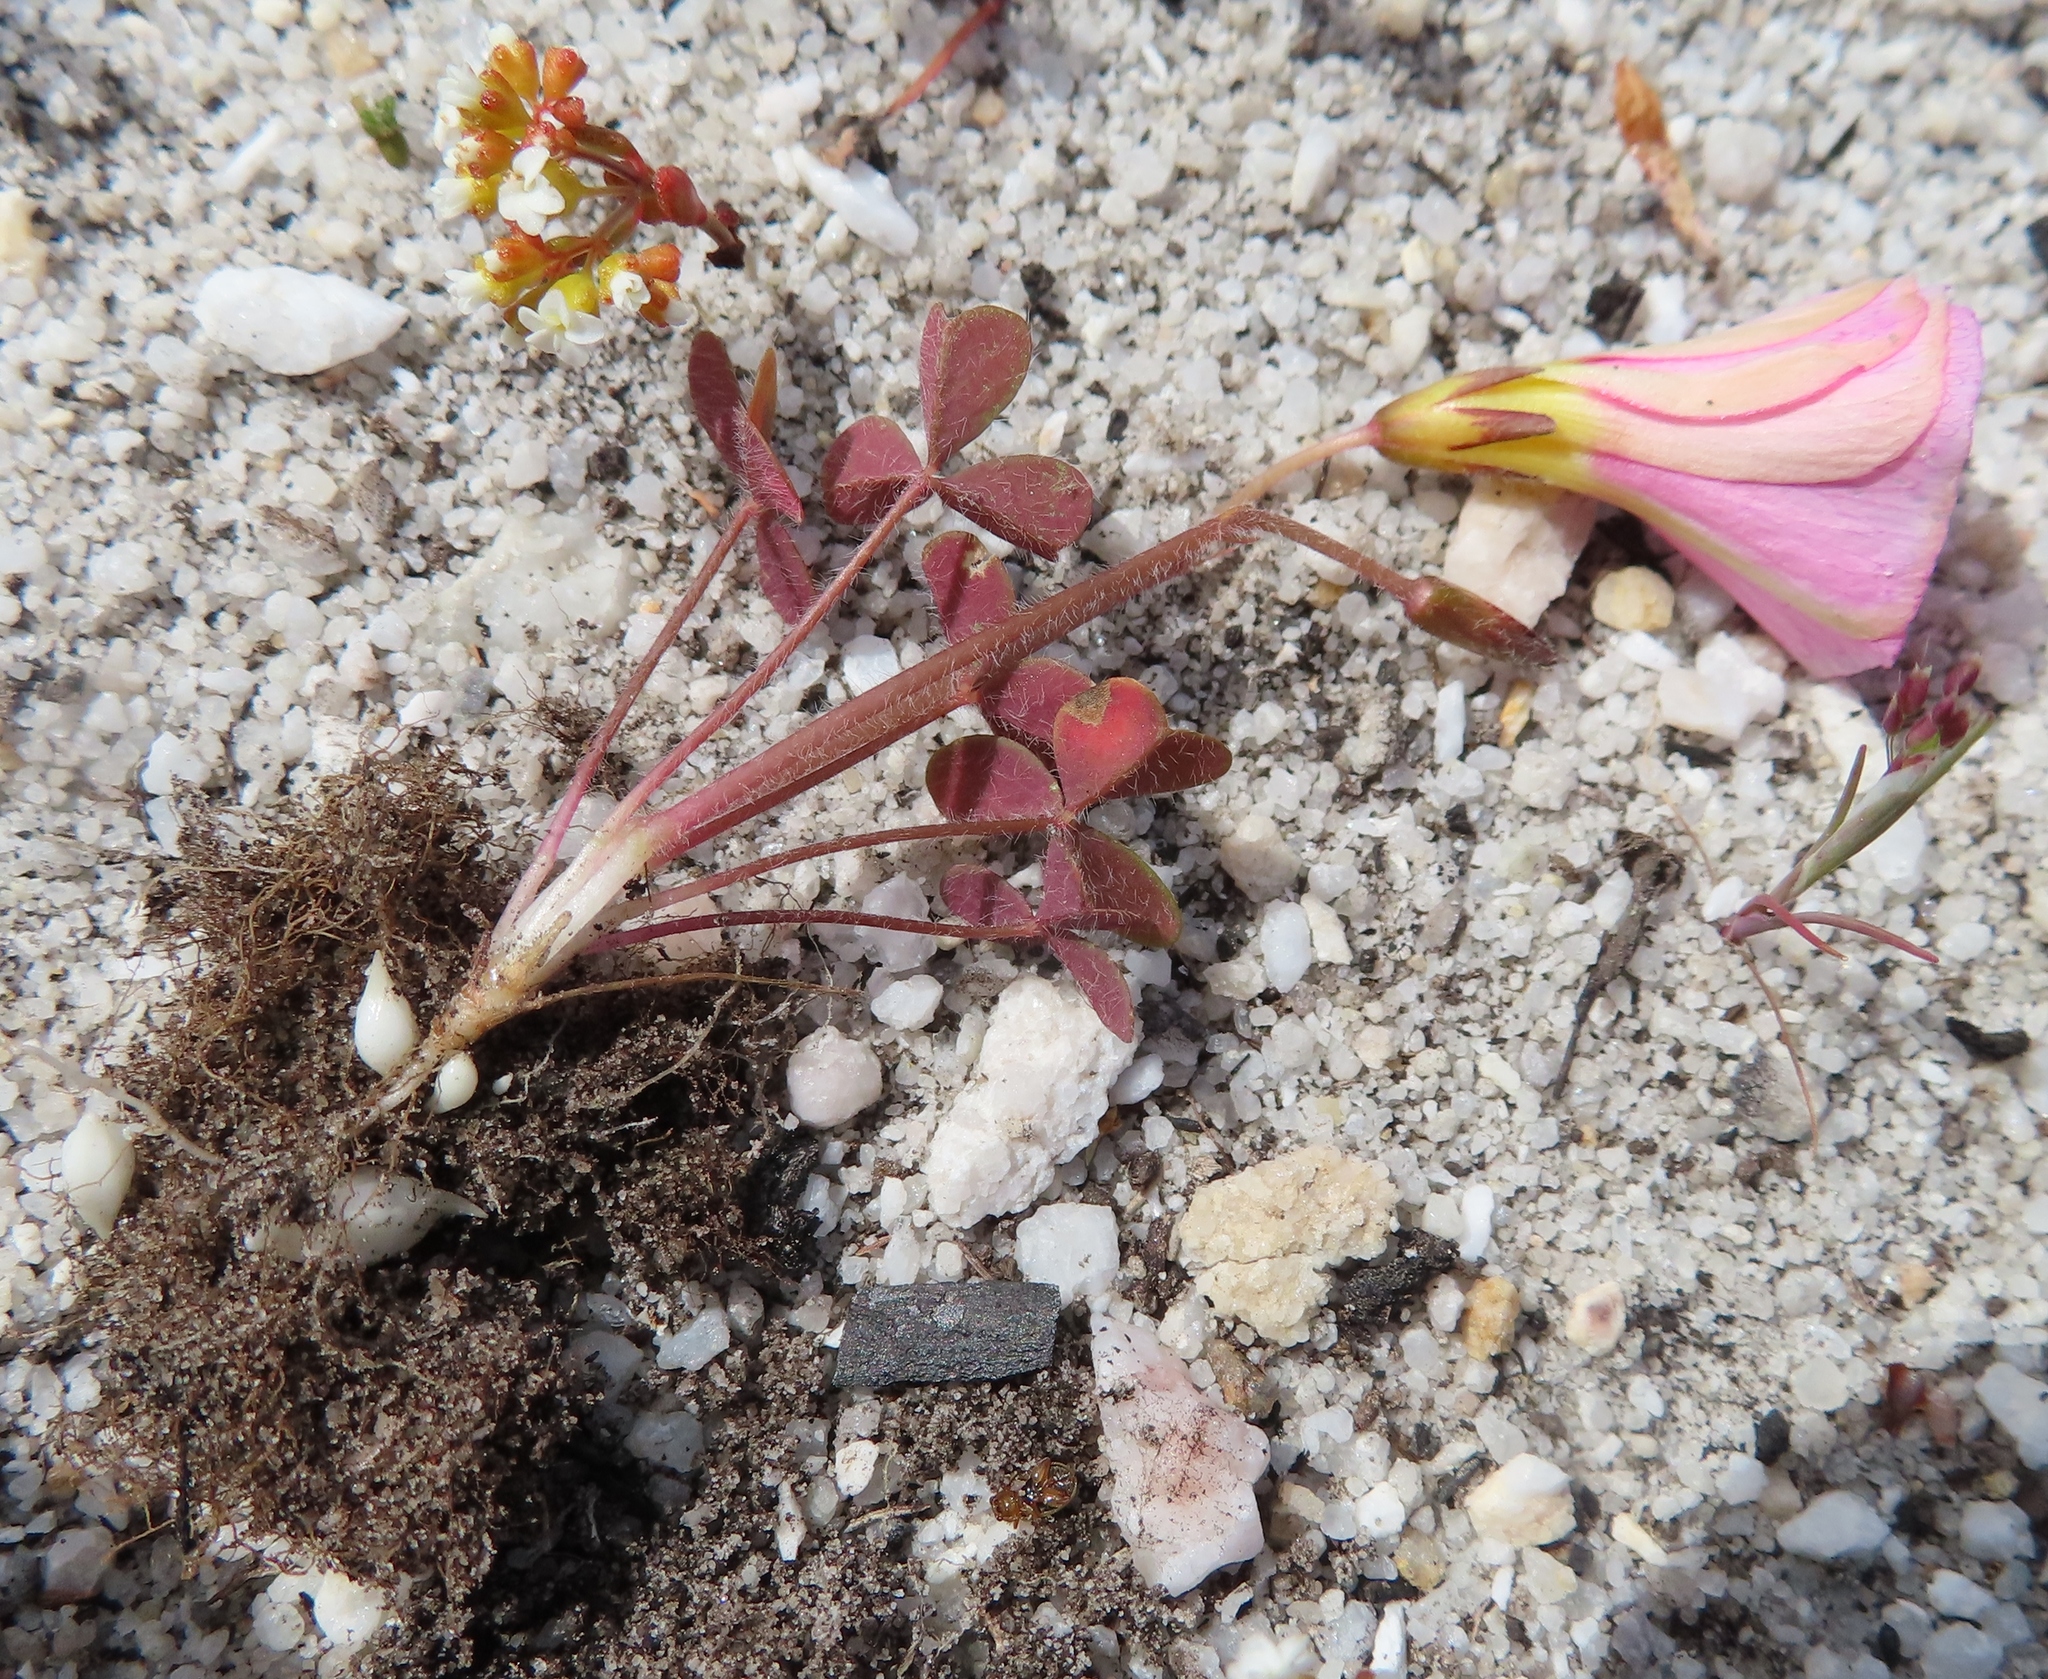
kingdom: Plantae
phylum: Tracheophyta
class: Magnoliopsida
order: Oxalidales
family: Oxalidaceae
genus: Oxalis
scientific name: Oxalis obtusa
